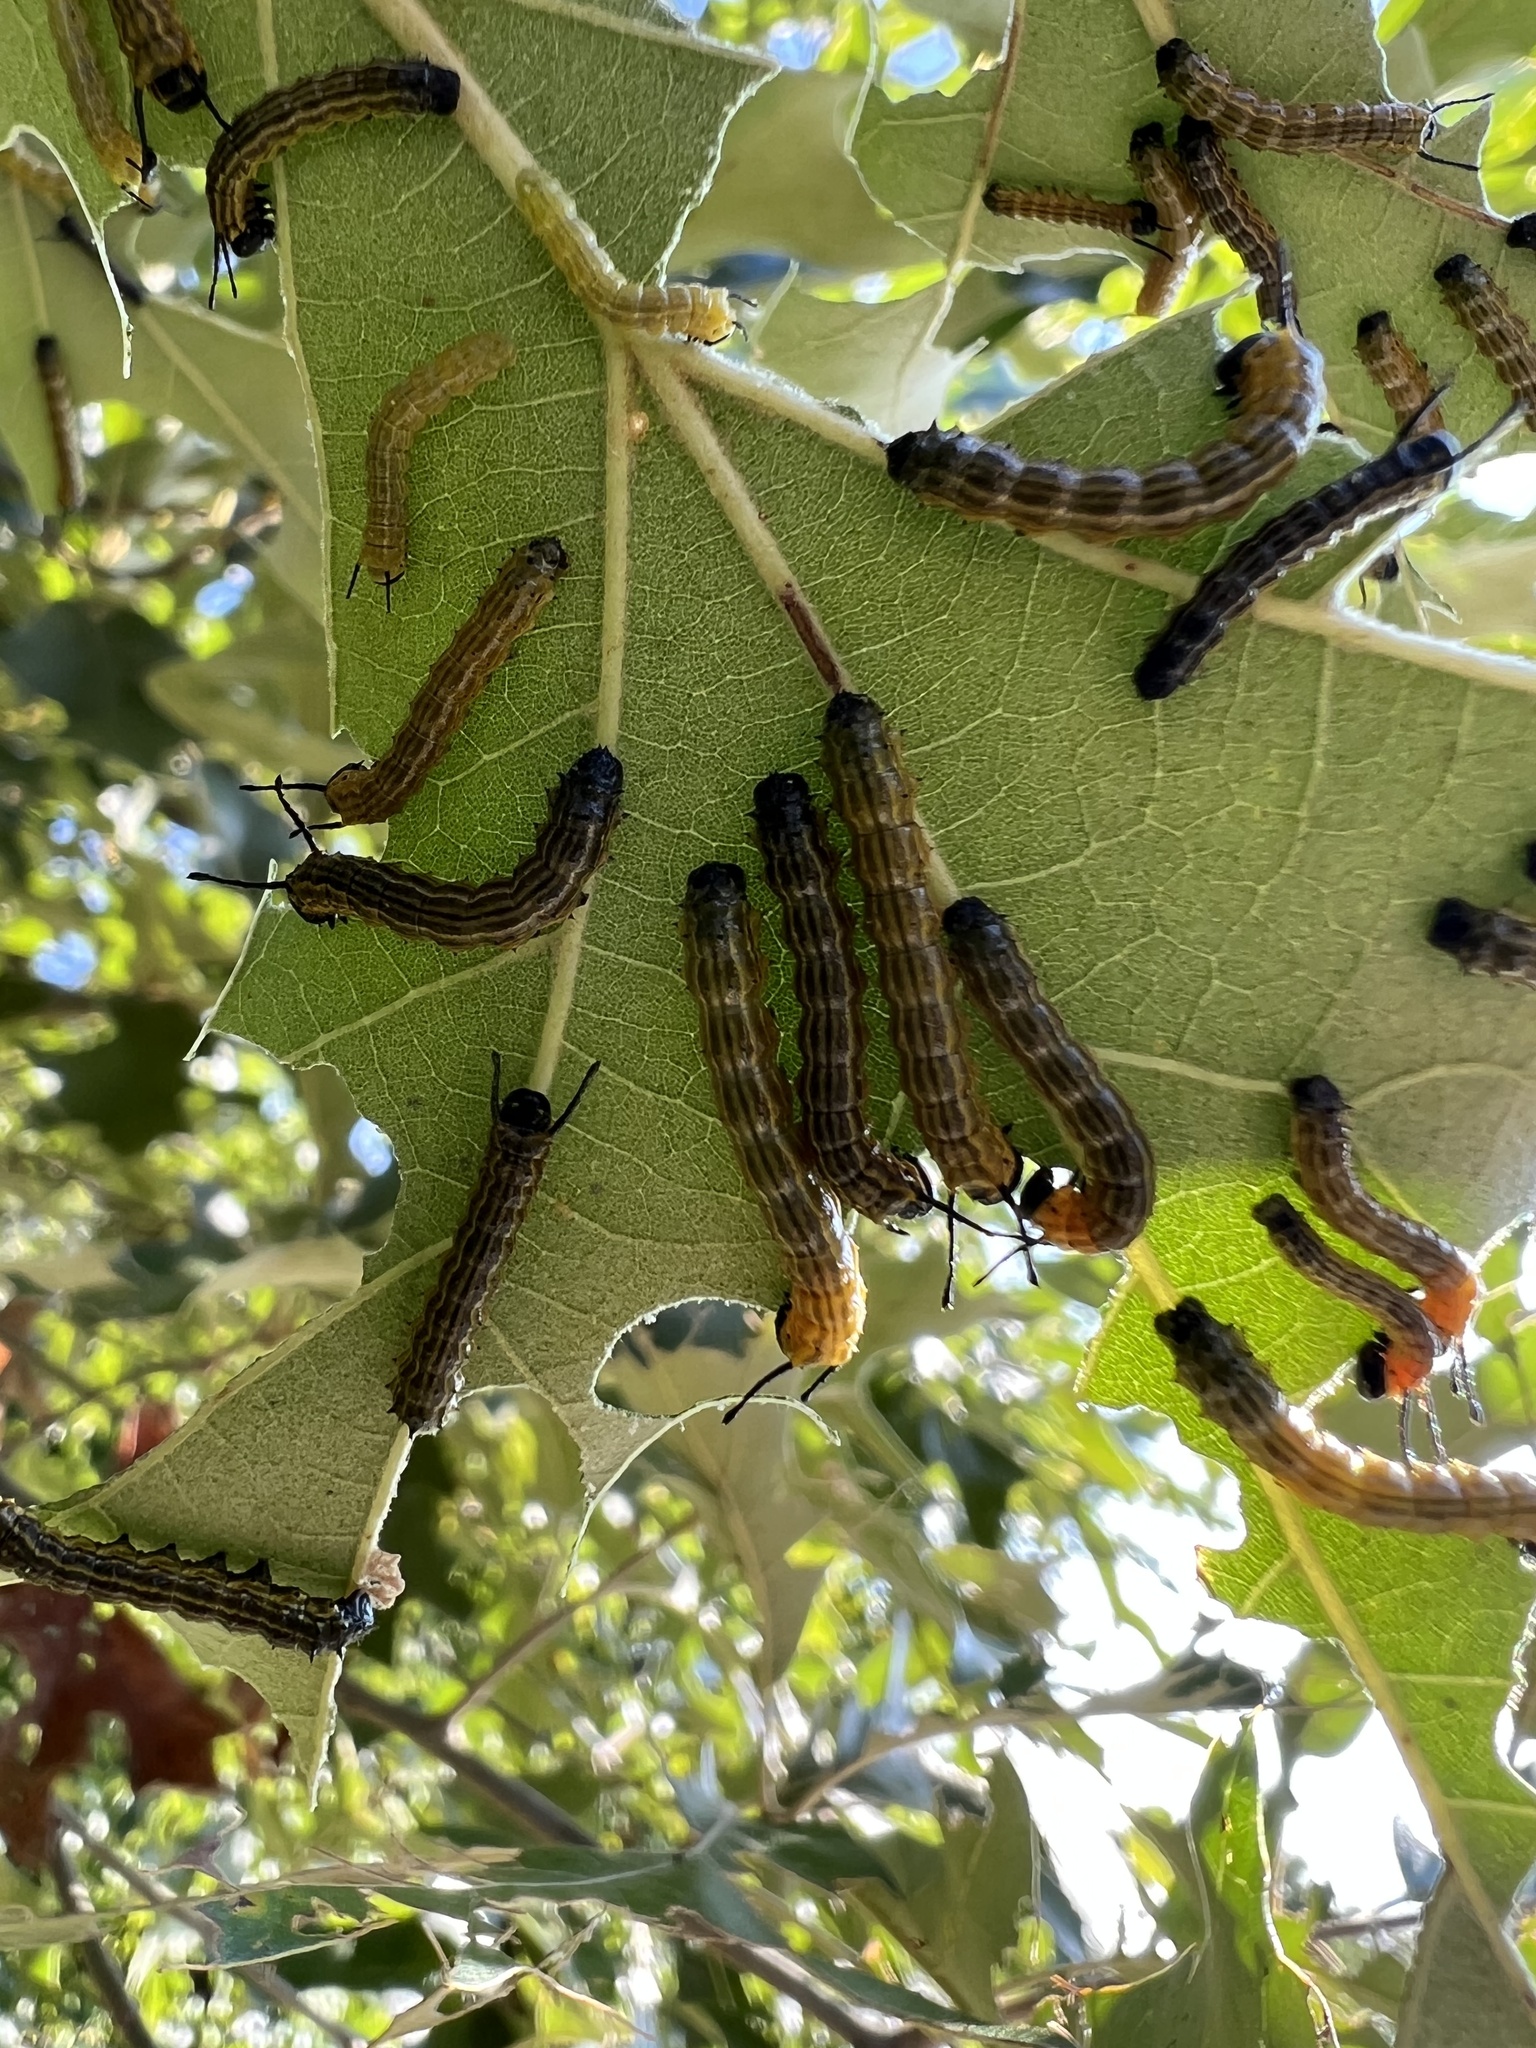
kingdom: Animalia
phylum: Arthropoda
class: Insecta
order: Lepidoptera
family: Saturniidae
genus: Anisota
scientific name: Anisota senatoria
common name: Orange-striped oakworm moth
